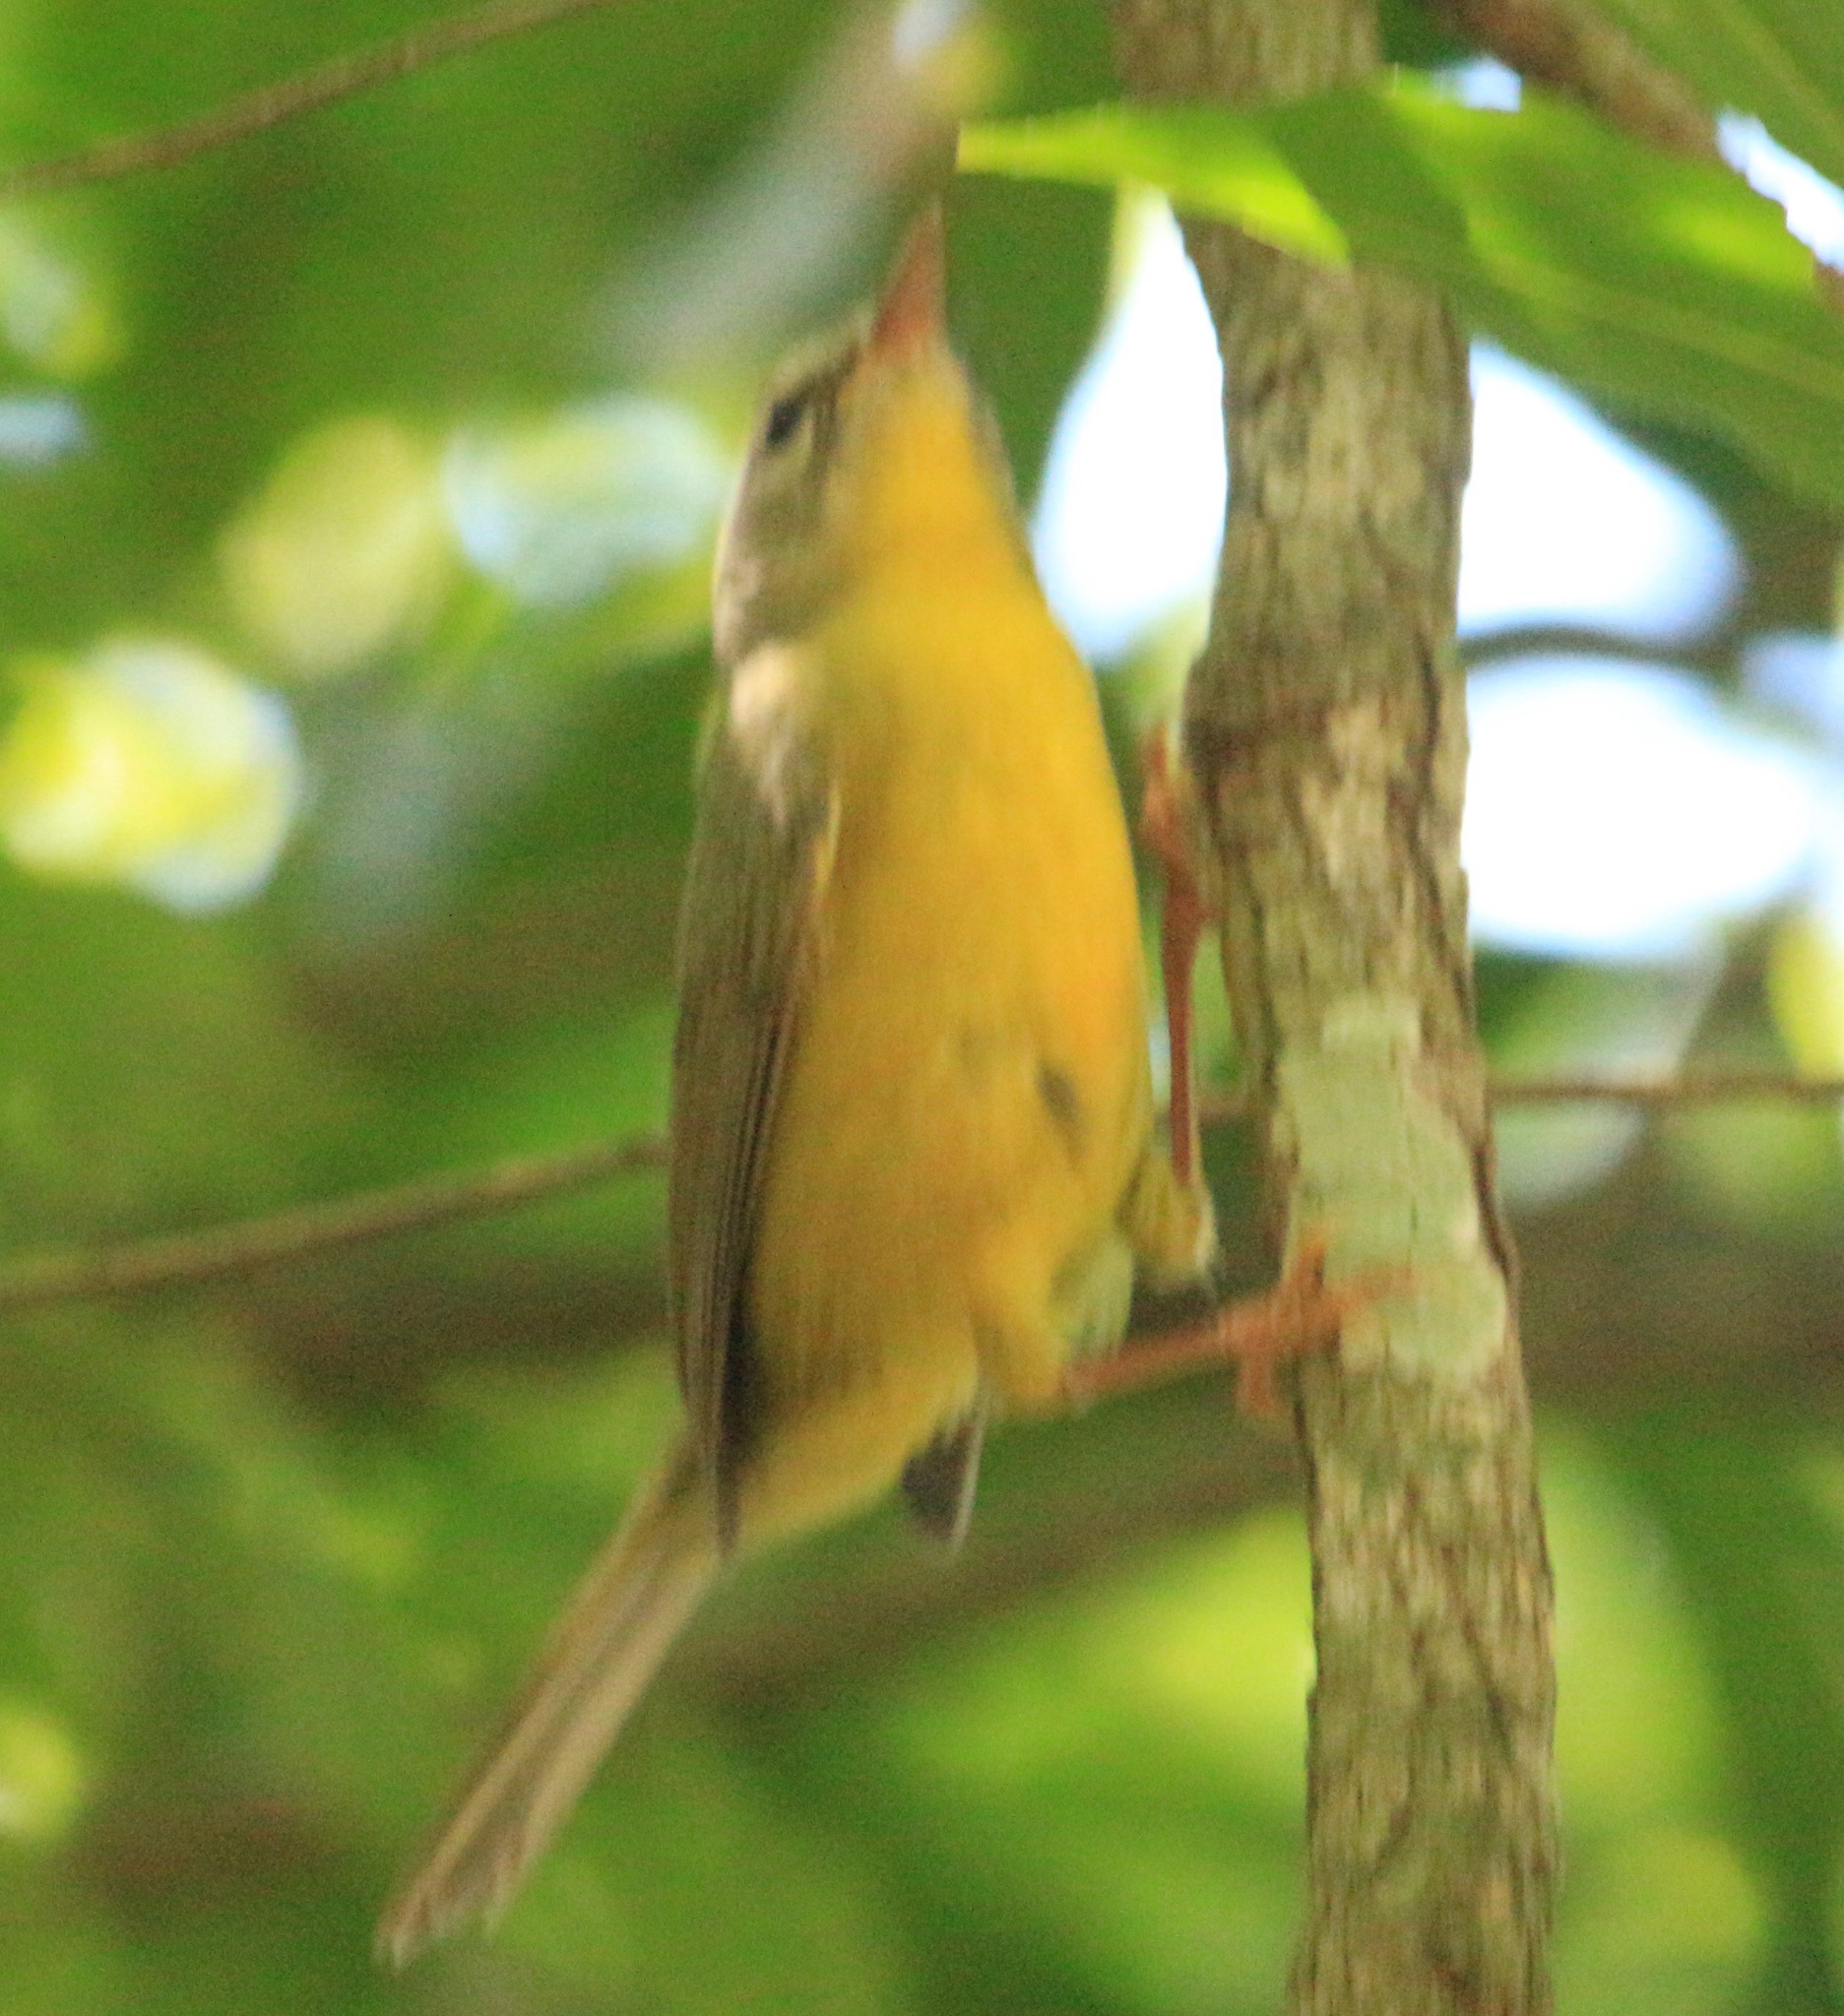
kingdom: Animalia
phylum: Chordata
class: Aves
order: Passeriformes
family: Parulidae
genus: Basileuterus
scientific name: Basileuterus culicivorus
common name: Golden-crowned warbler
